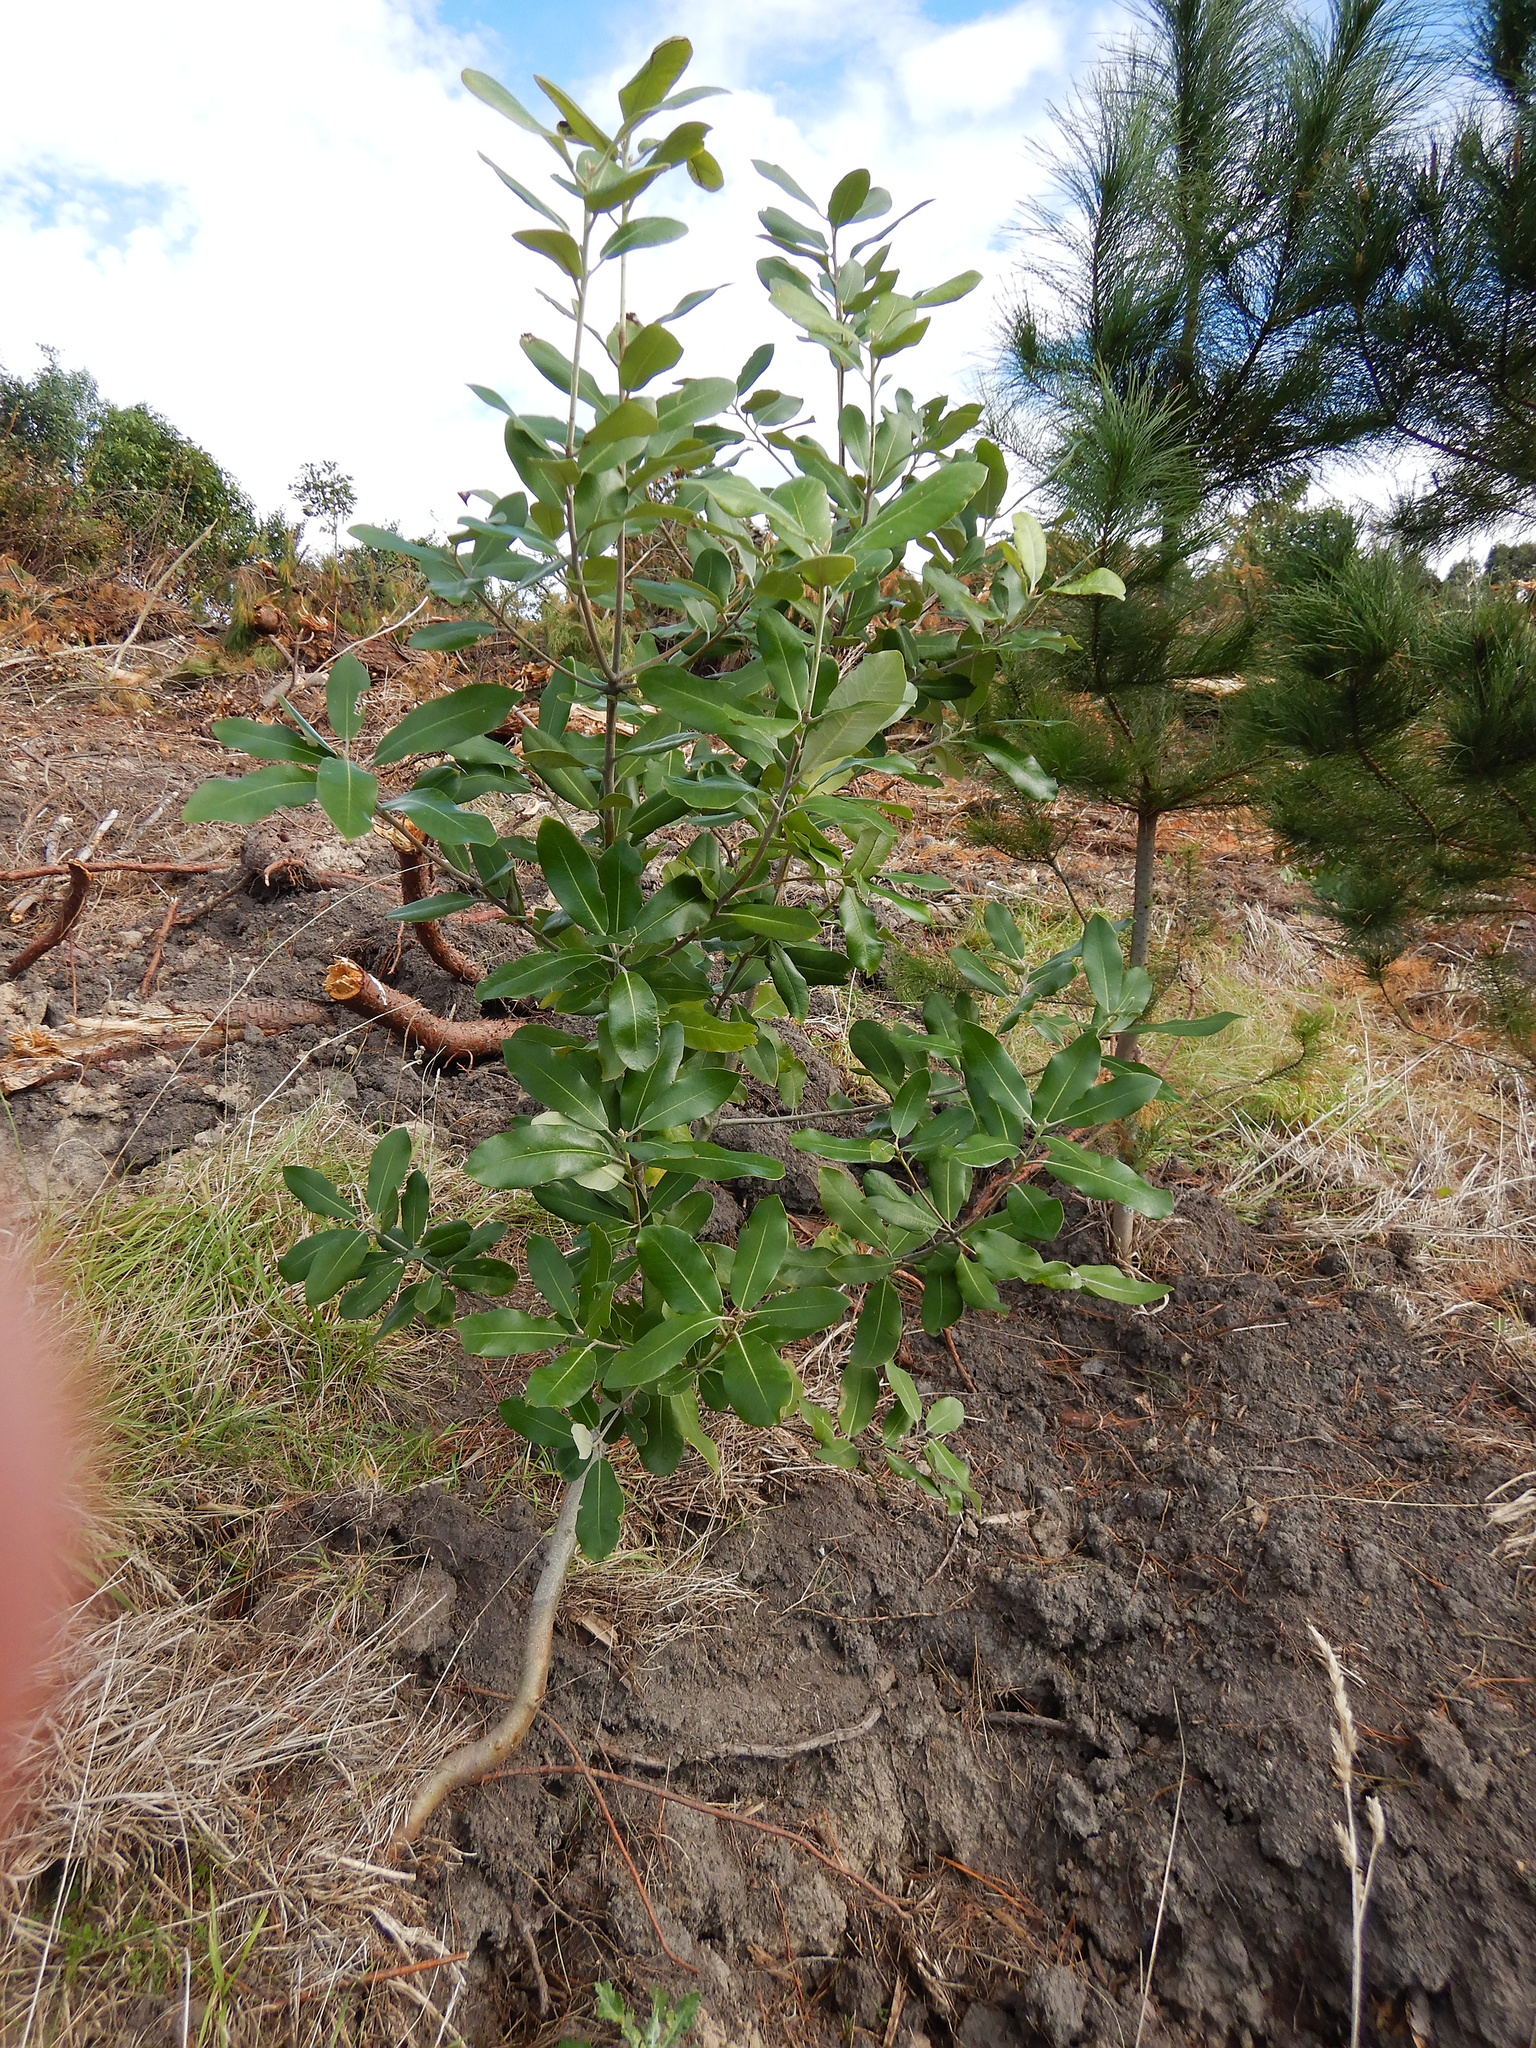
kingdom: Plantae
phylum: Tracheophyta
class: Magnoliopsida
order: Apiales
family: Pittosporaceae
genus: Pittosporum
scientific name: Pittosporum ralphii
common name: Ralph's desertwillow
